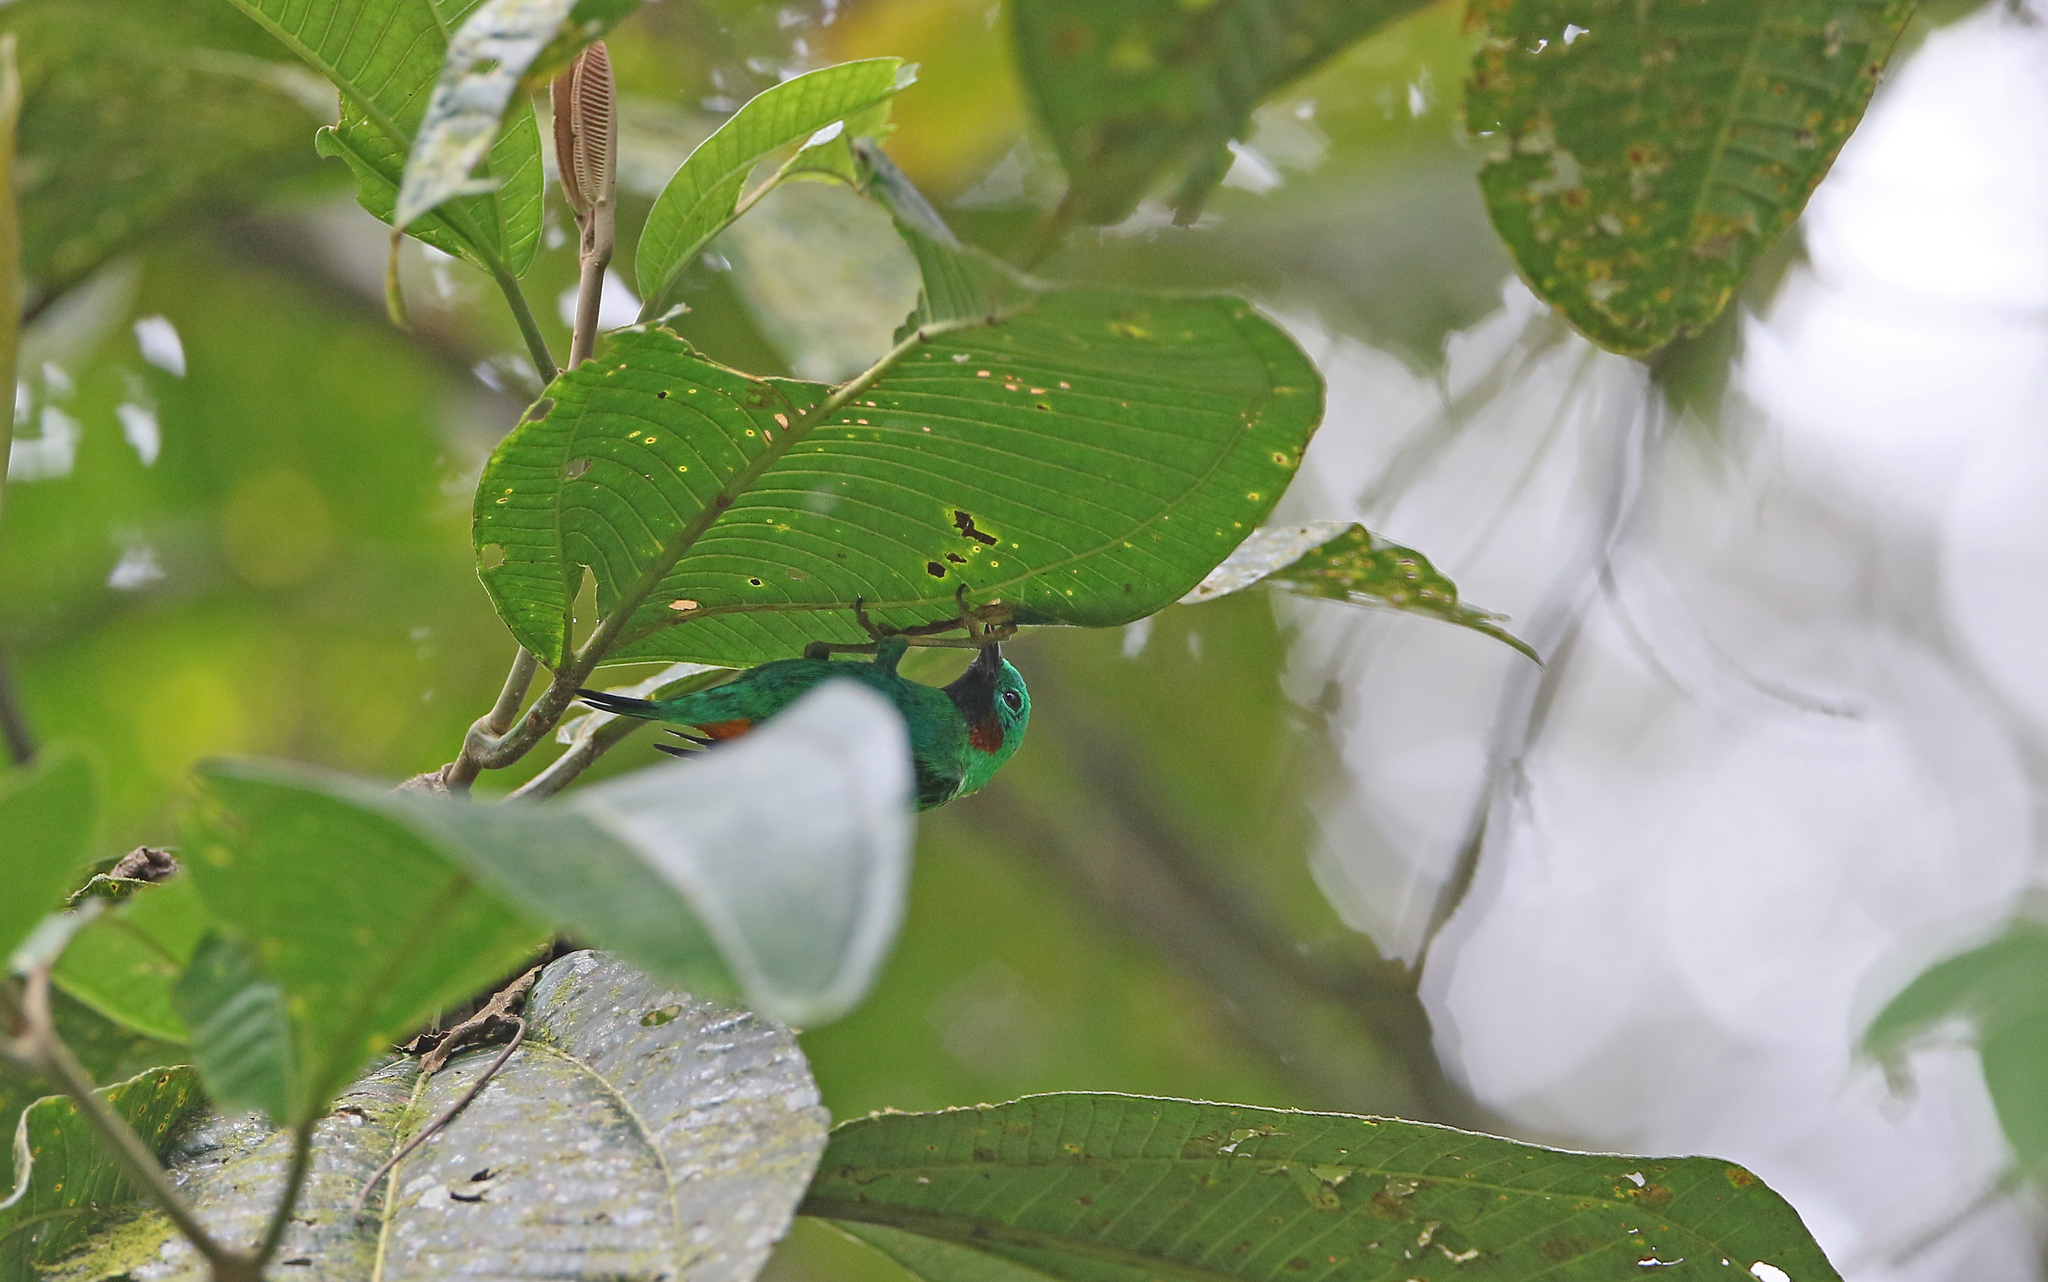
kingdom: Animalia
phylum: Chordata
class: Aves
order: Passeriformes
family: Thraupidae
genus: Chlorochrysa
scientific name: Chlorochrysa calliparaea
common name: Orange-eared tanager
